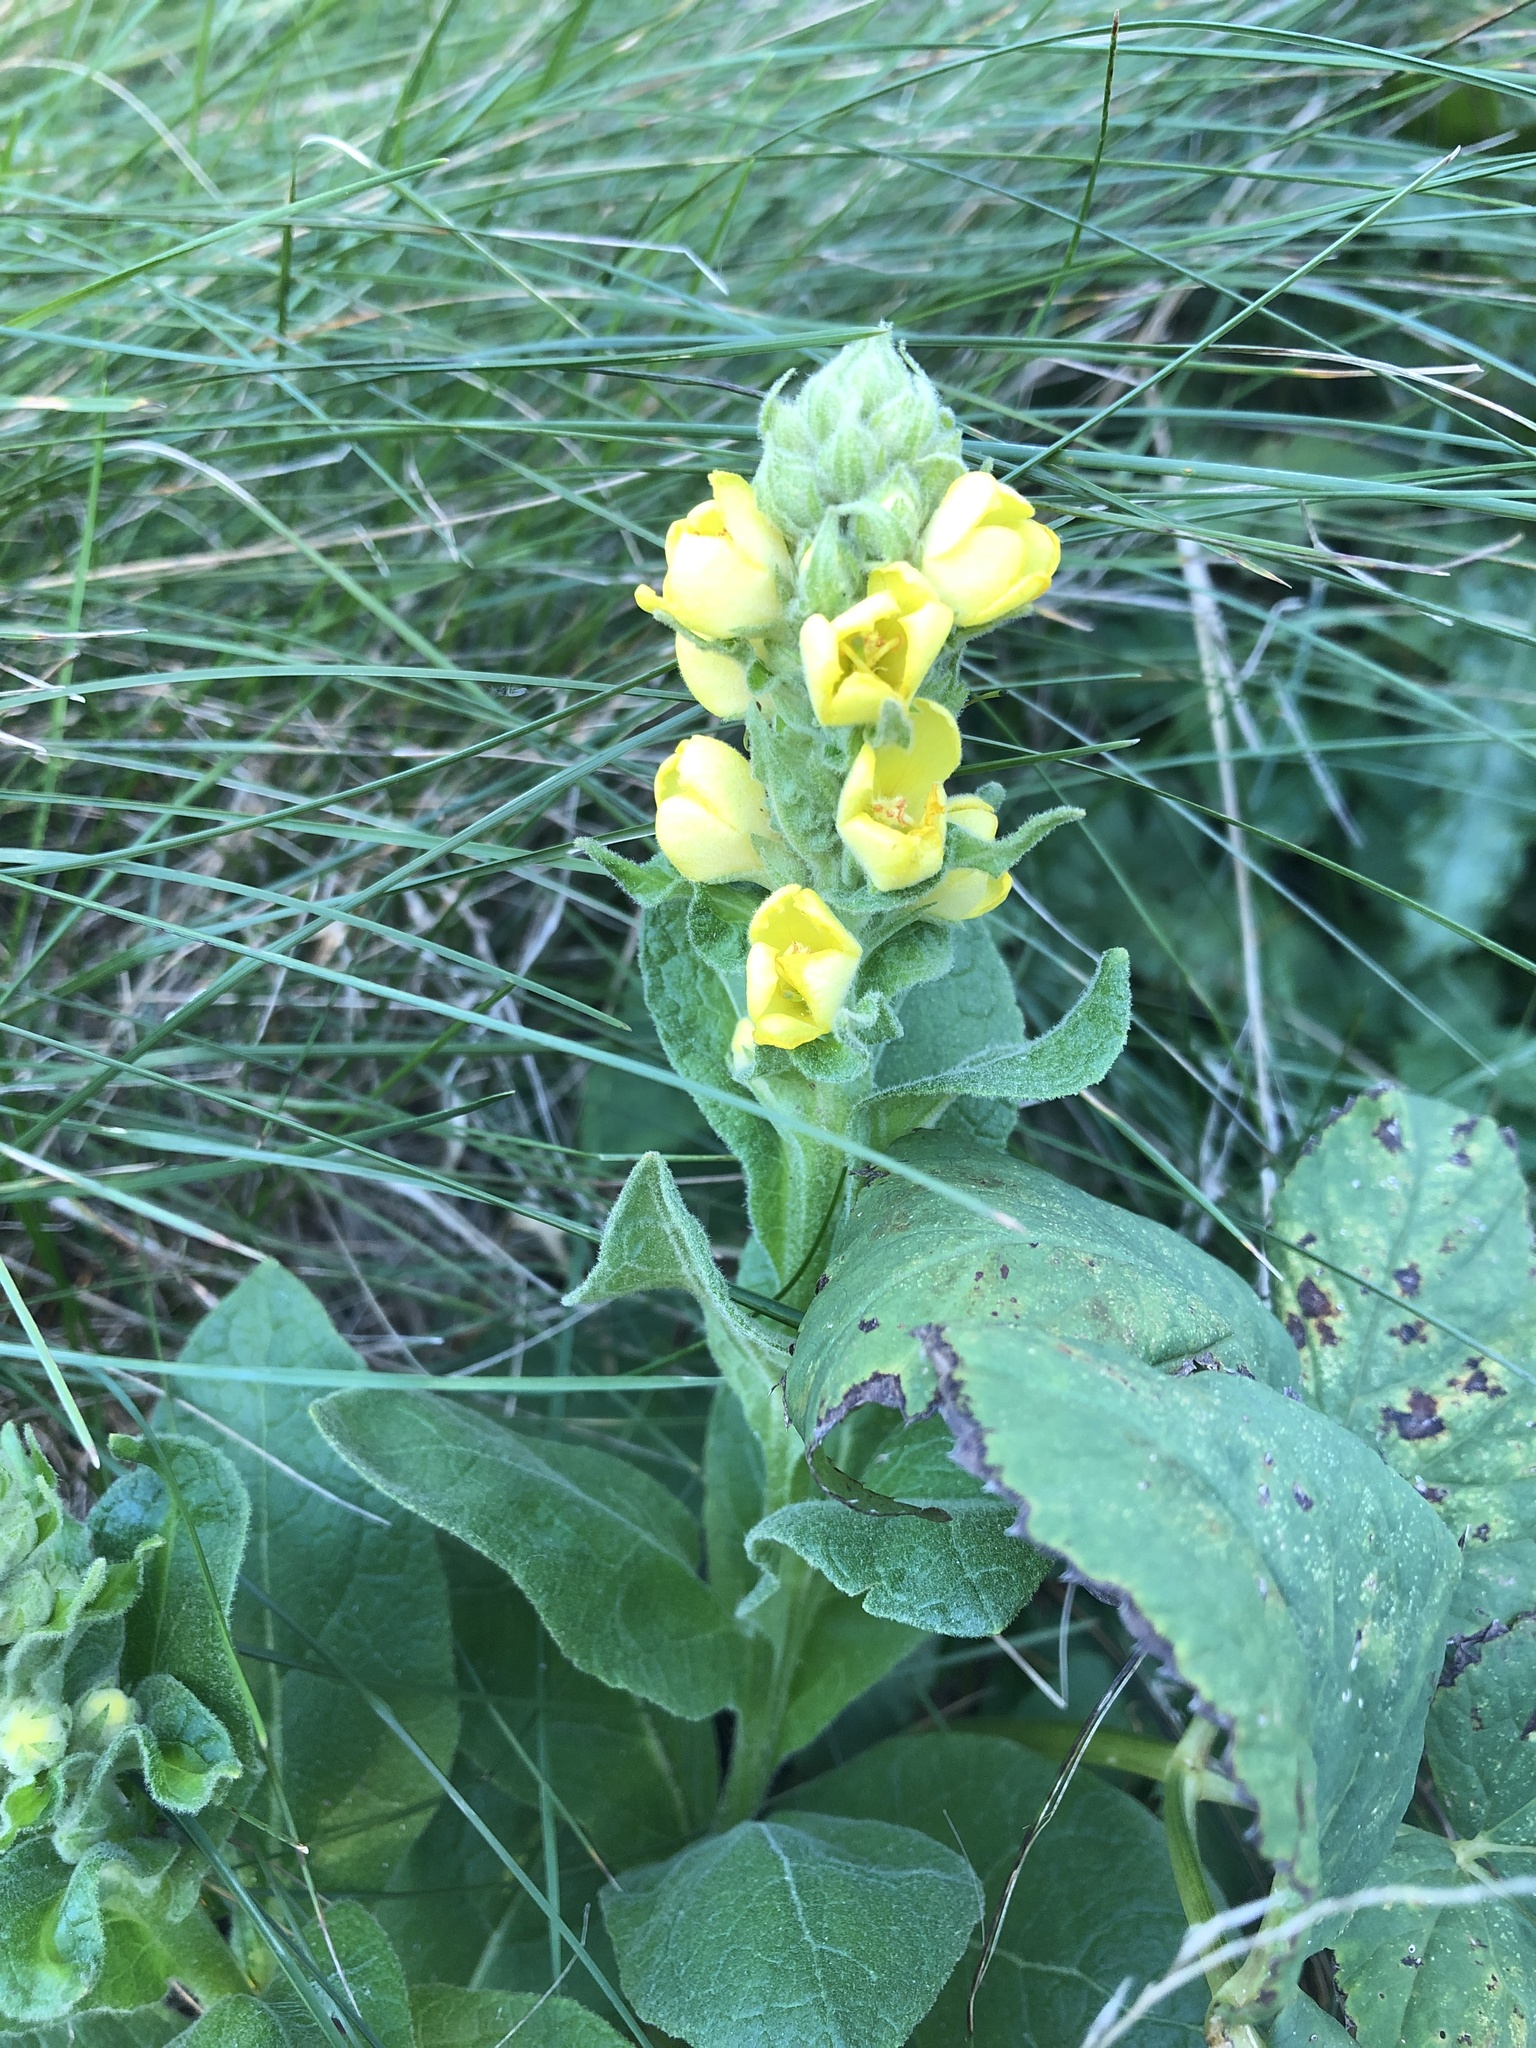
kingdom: Plantae
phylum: Tracheophyta
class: Magnoliopsida
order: Lamiales
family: Scrophulariaceae
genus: Verbascum
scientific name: Verbascum thapsus
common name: Common mullein
